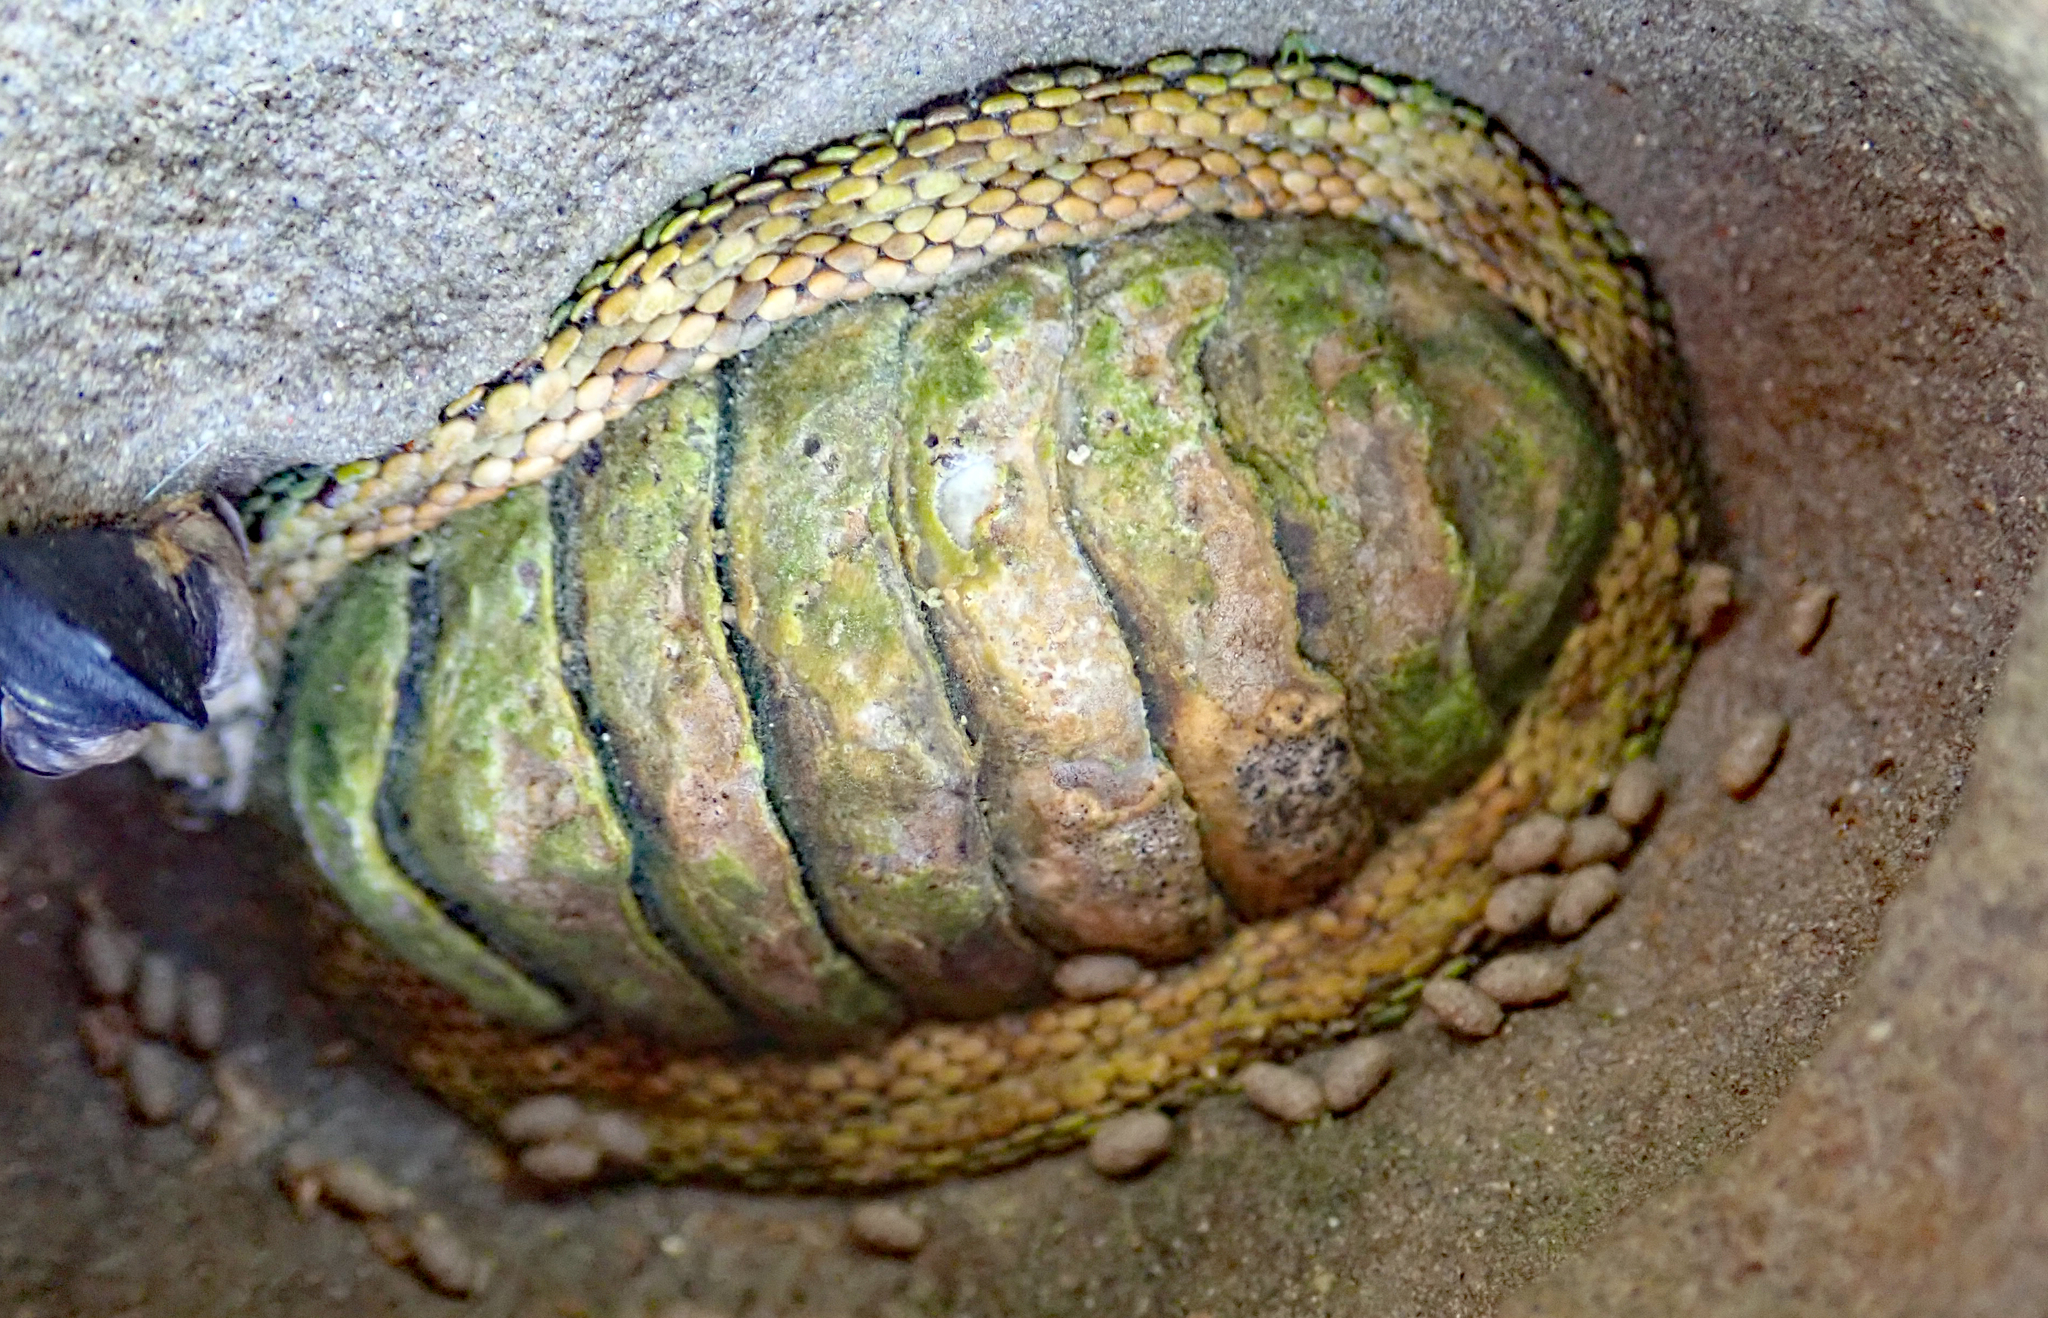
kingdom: Animalia
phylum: Mollusca
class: Polyplacophora
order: Chitonida
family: Chitonidae
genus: Sypharochiton
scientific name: Sypharochiton pelliserpentis
